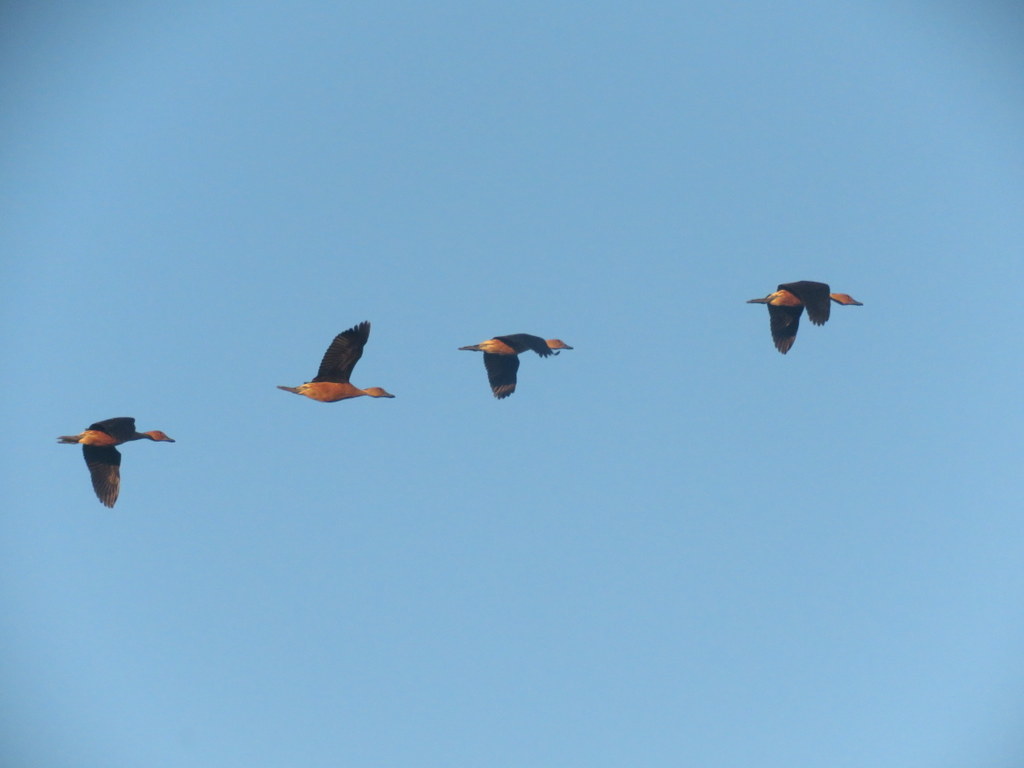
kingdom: Animalia
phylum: Chordata
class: Aves
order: Anseriformes
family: Anatidae
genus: Dendrocygna
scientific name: Dendrocygna bicolor
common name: Fulvous whistling duck
